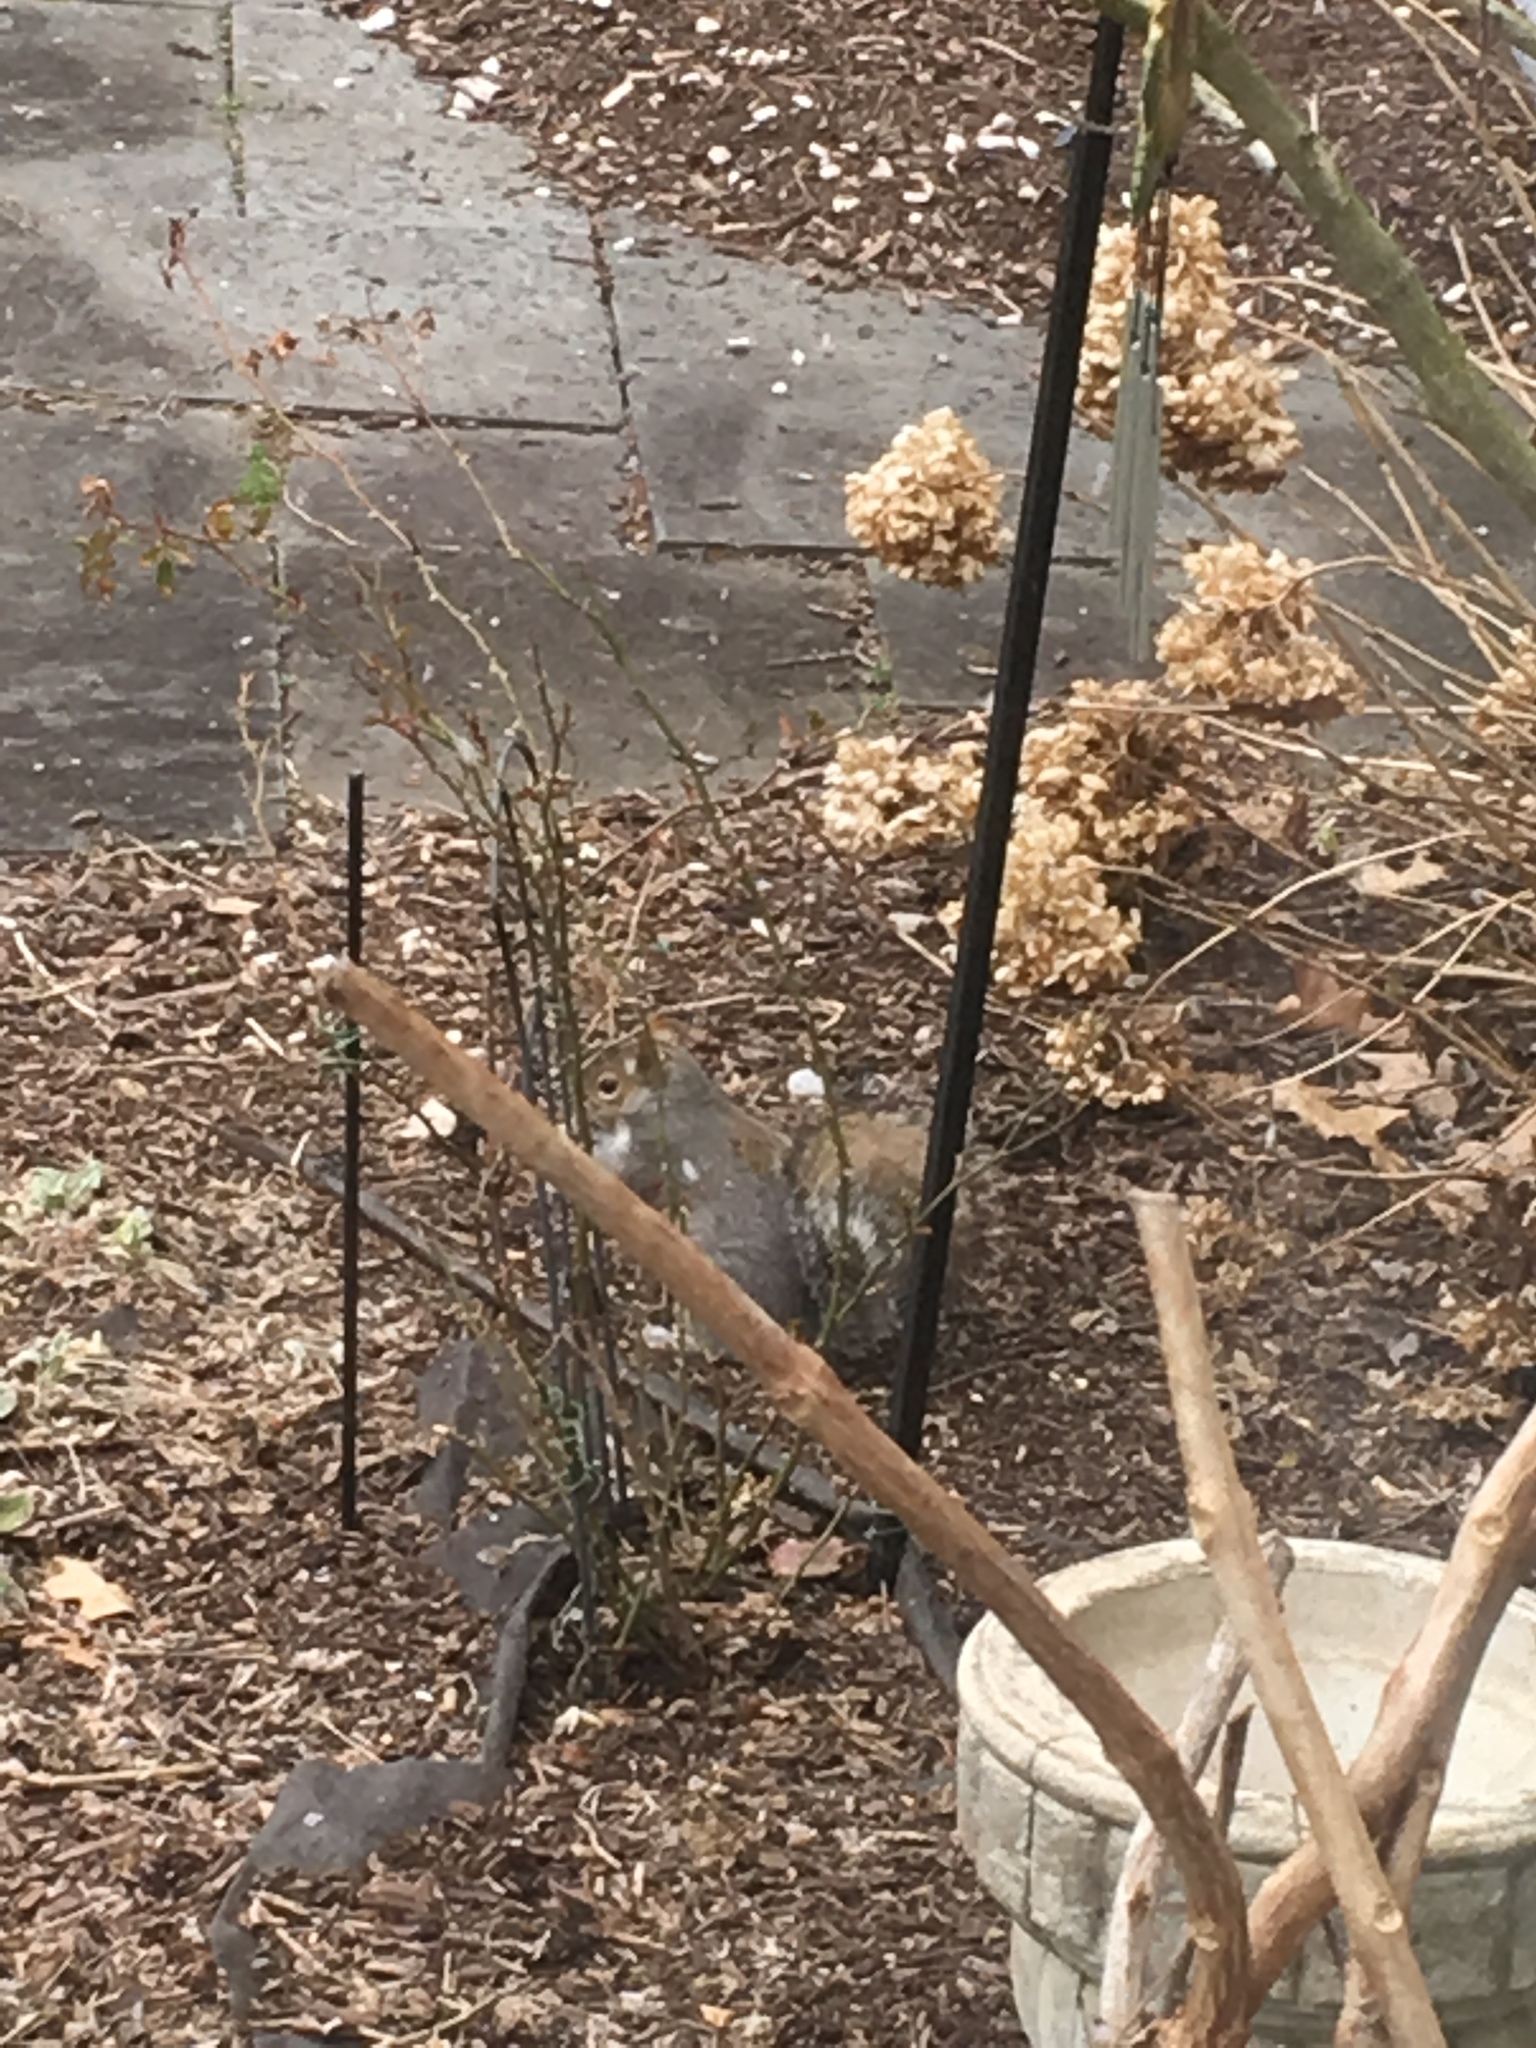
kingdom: Animalia
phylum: Chordata
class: Mammalia
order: Rodentia
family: Sciuridae
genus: Sciurus
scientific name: Sciurus carolinensis
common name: Eastern gray squirrel
